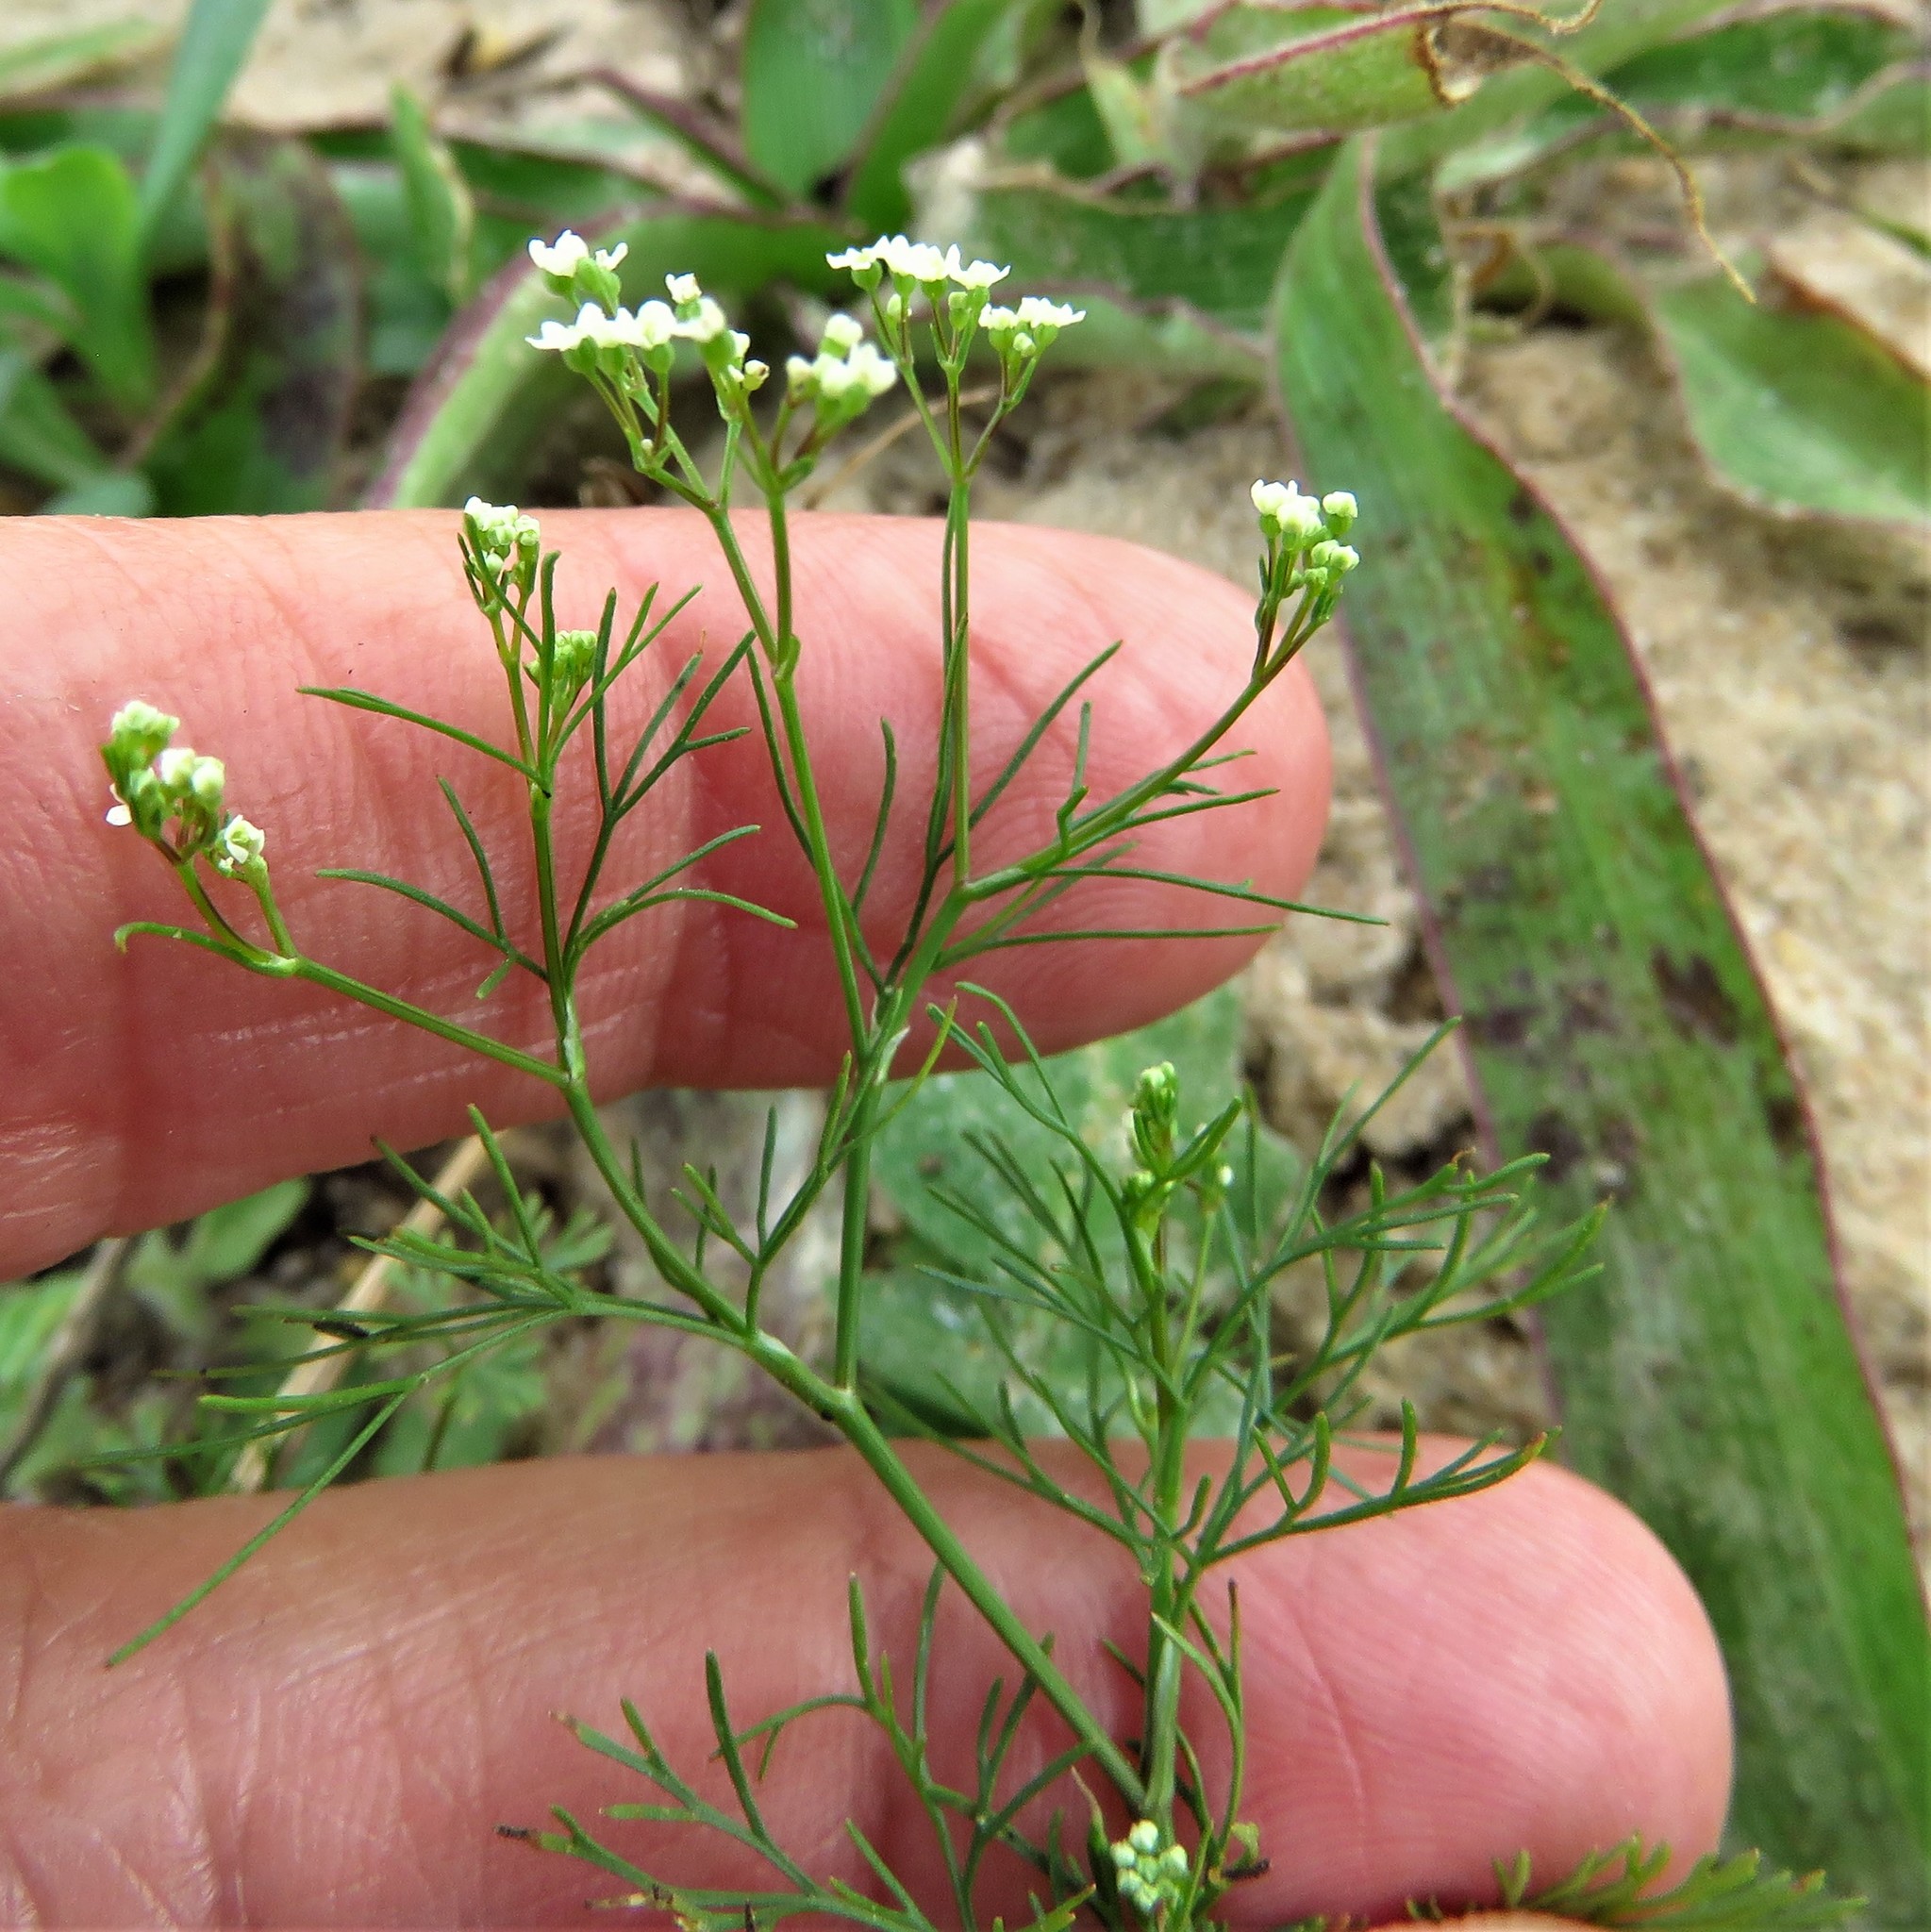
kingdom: Plantae
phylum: Tracheophyta
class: Magnoliopsida
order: Apiales
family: Apiaceae
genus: Cyclospermum
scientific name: Cyclospermum leptophyllum
